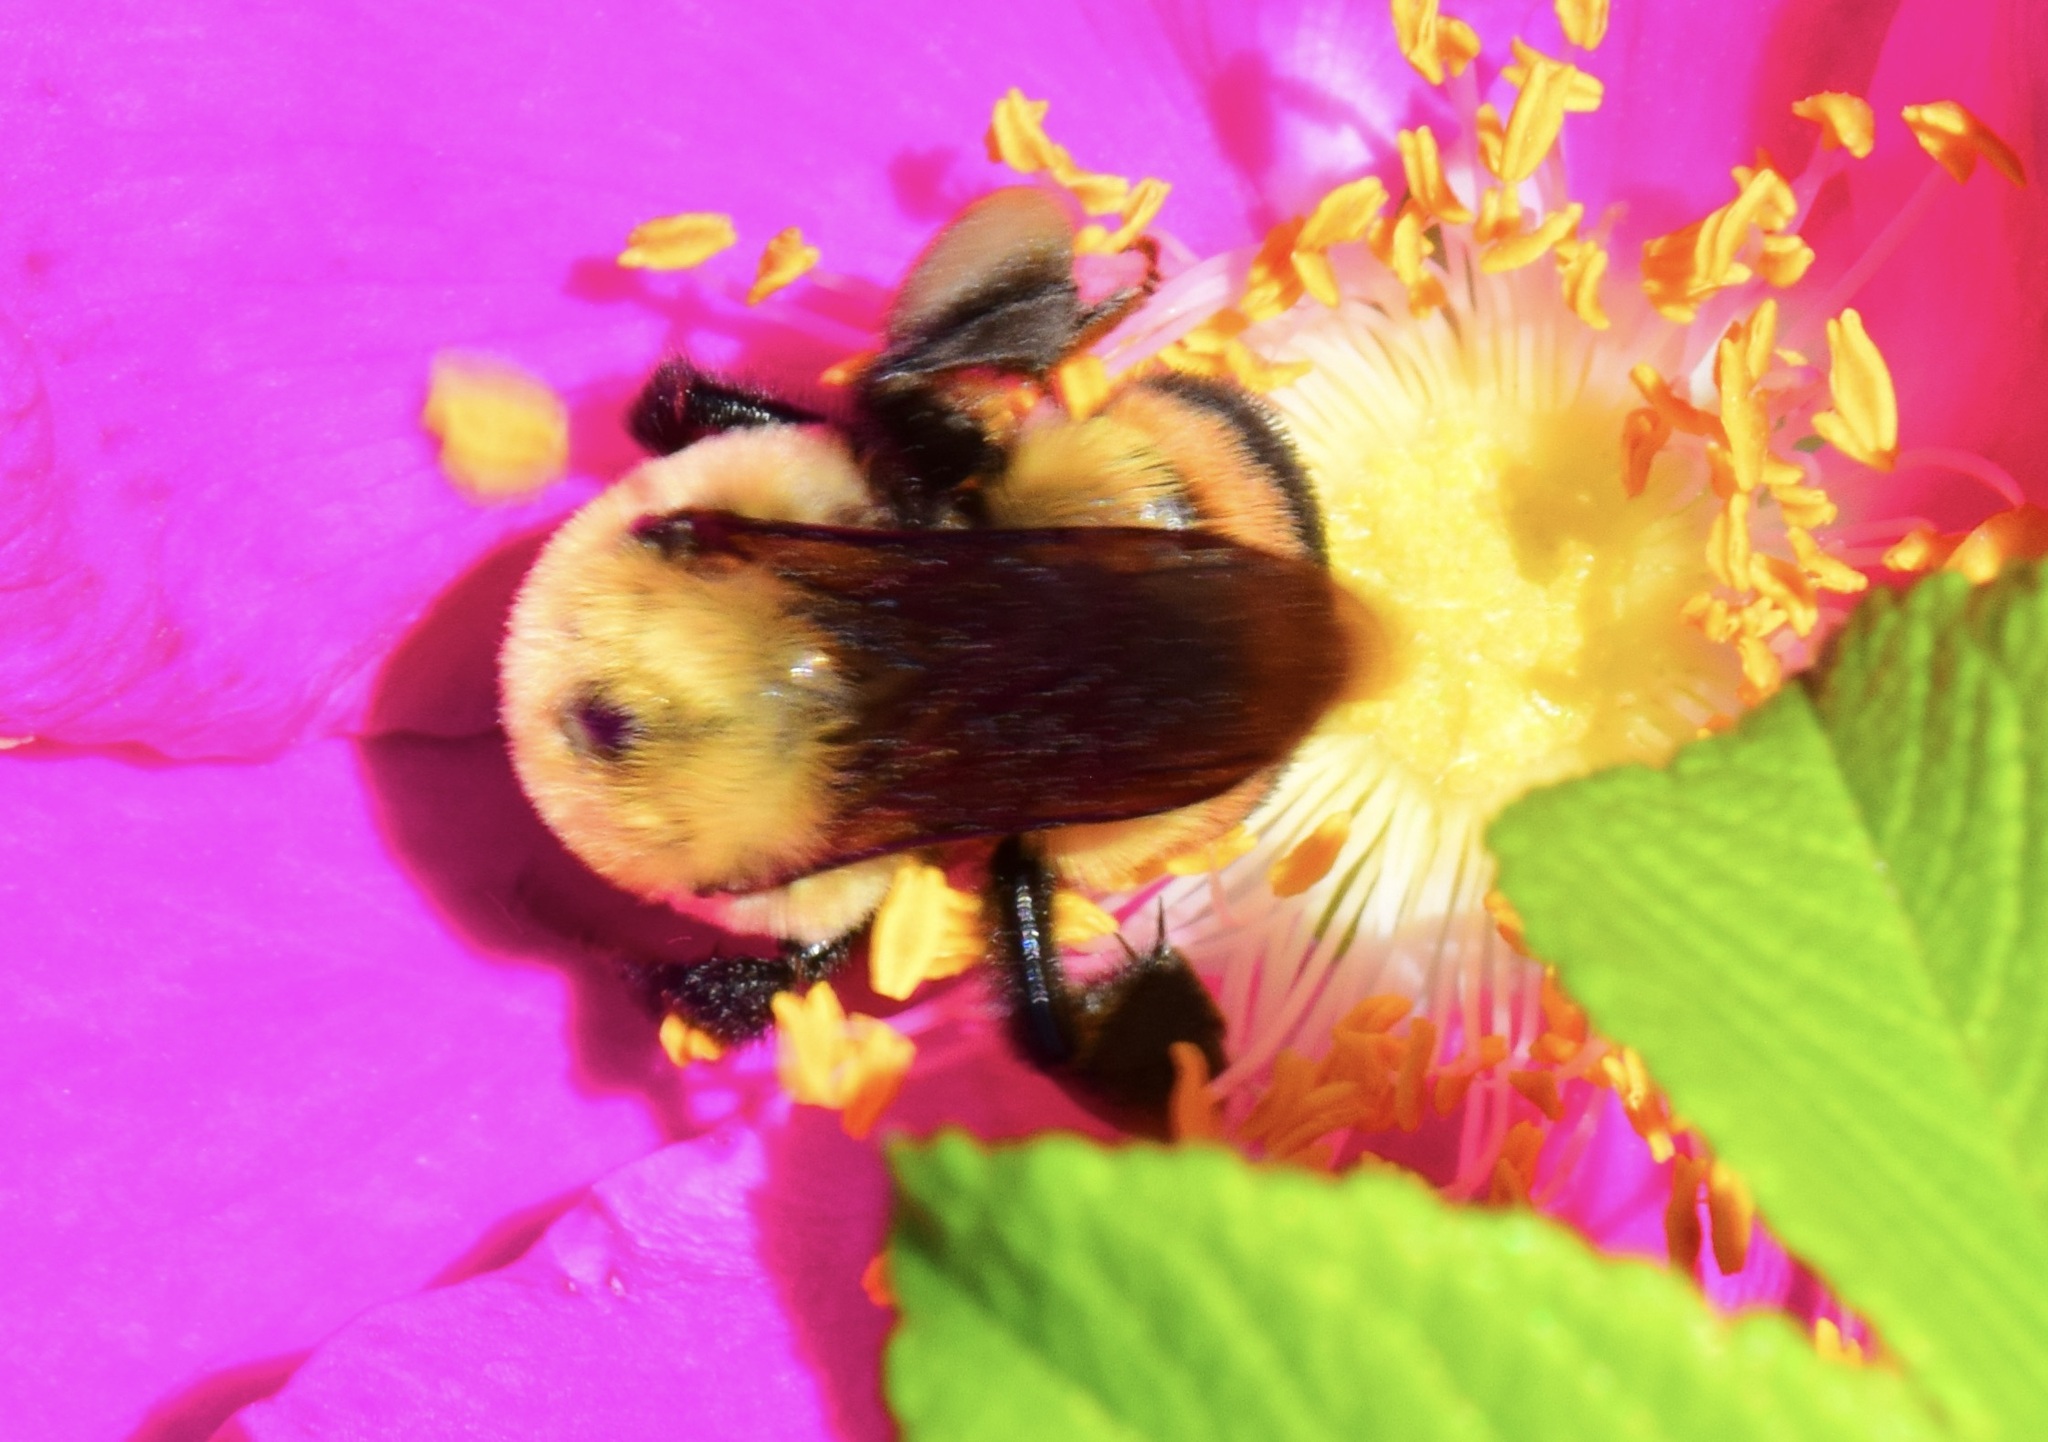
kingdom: Animalia
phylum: Arthropoda
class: Insecta
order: Hymenoptera
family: Apidae
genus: Bombus
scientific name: Bombus griseocollis
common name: Brown-belted bumble bee
